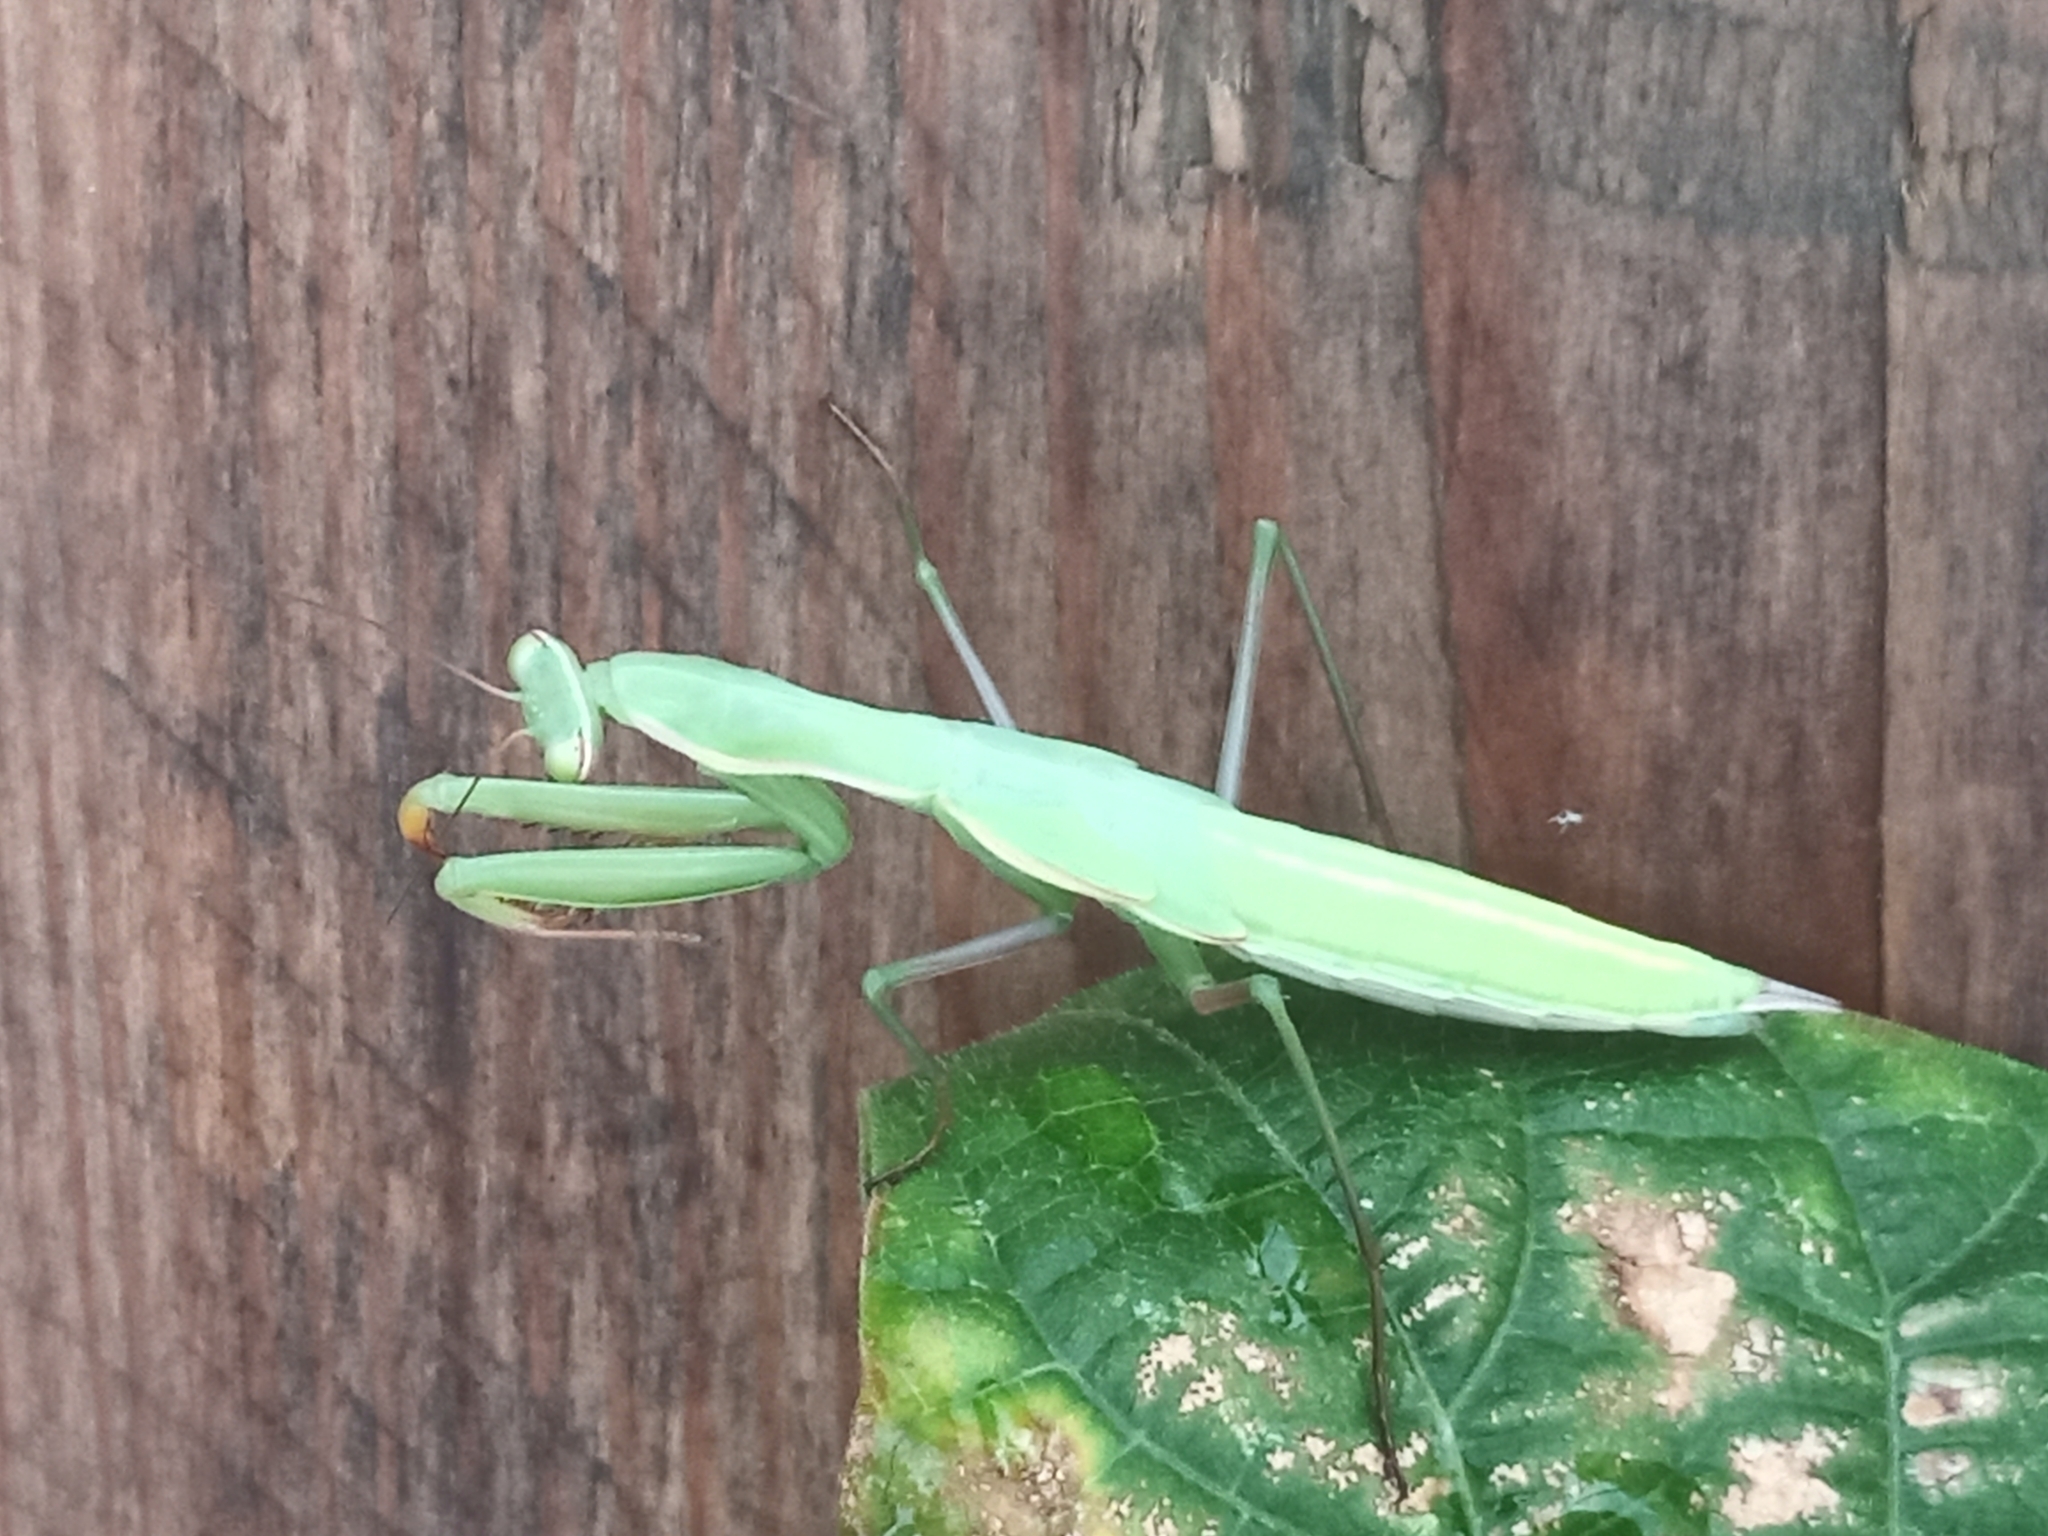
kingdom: Animalia
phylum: Arthropoda
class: Insecta
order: Mantodea
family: Mantidae
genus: Mantis
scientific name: Mantis religiosa
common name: Praying mantis
